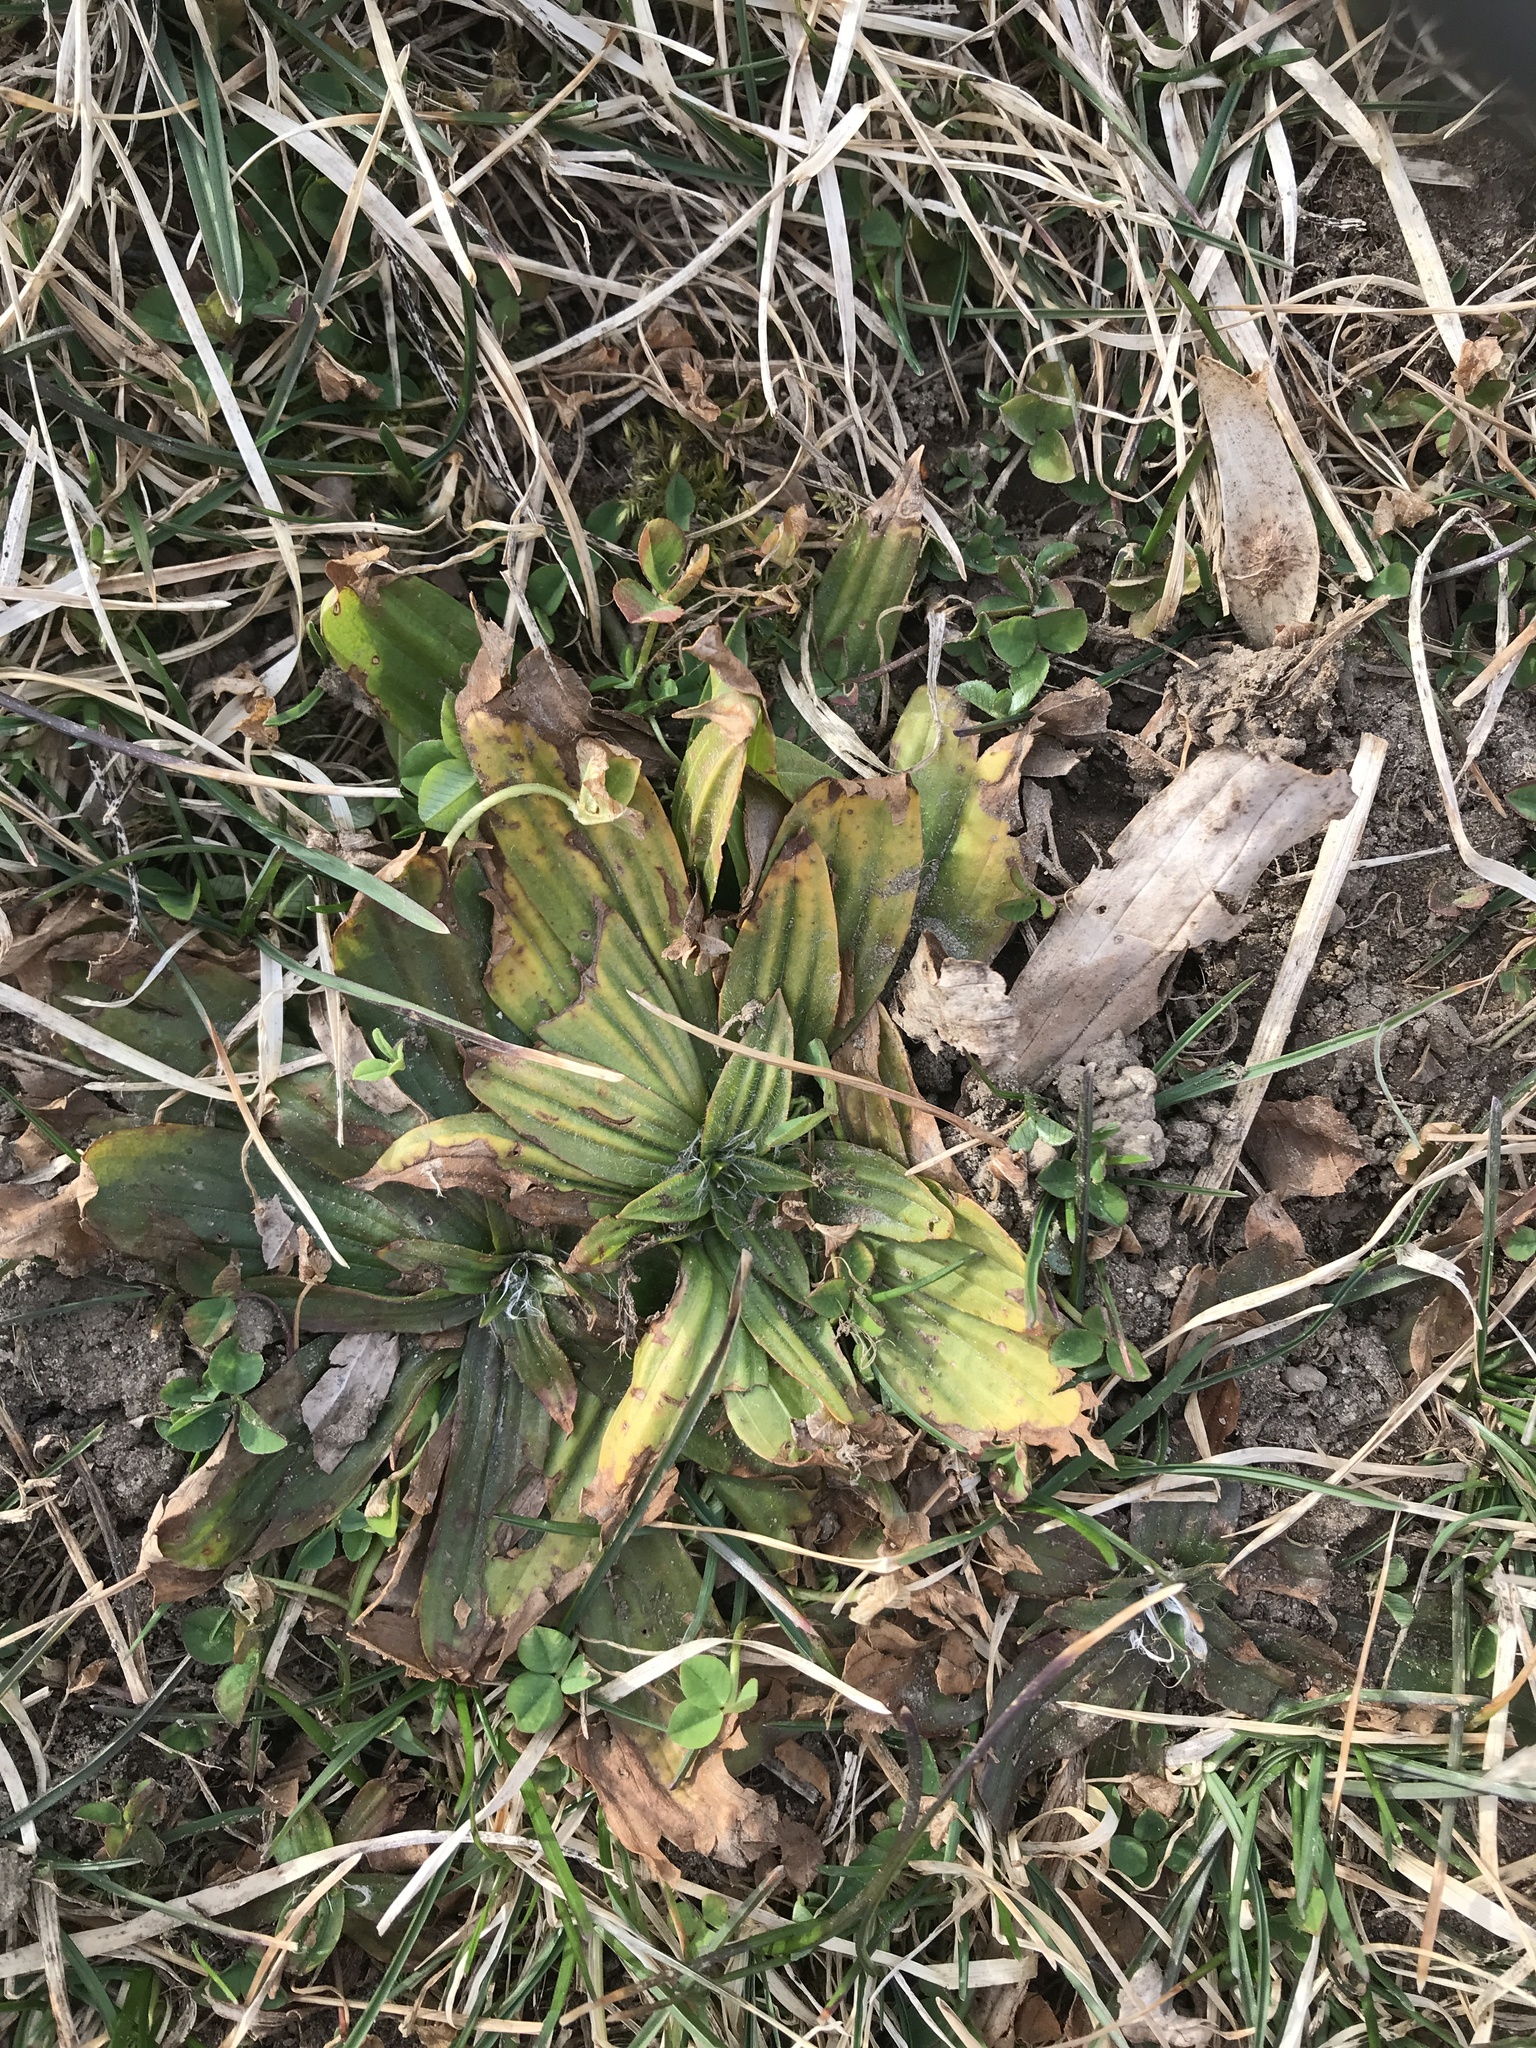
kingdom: Plantae
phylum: Tracheophyta
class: Magnoliopsida
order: Lamiales
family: Plantaginaceae
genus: Plantago
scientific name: Plantago lanceolata
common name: Ribwort plantain
